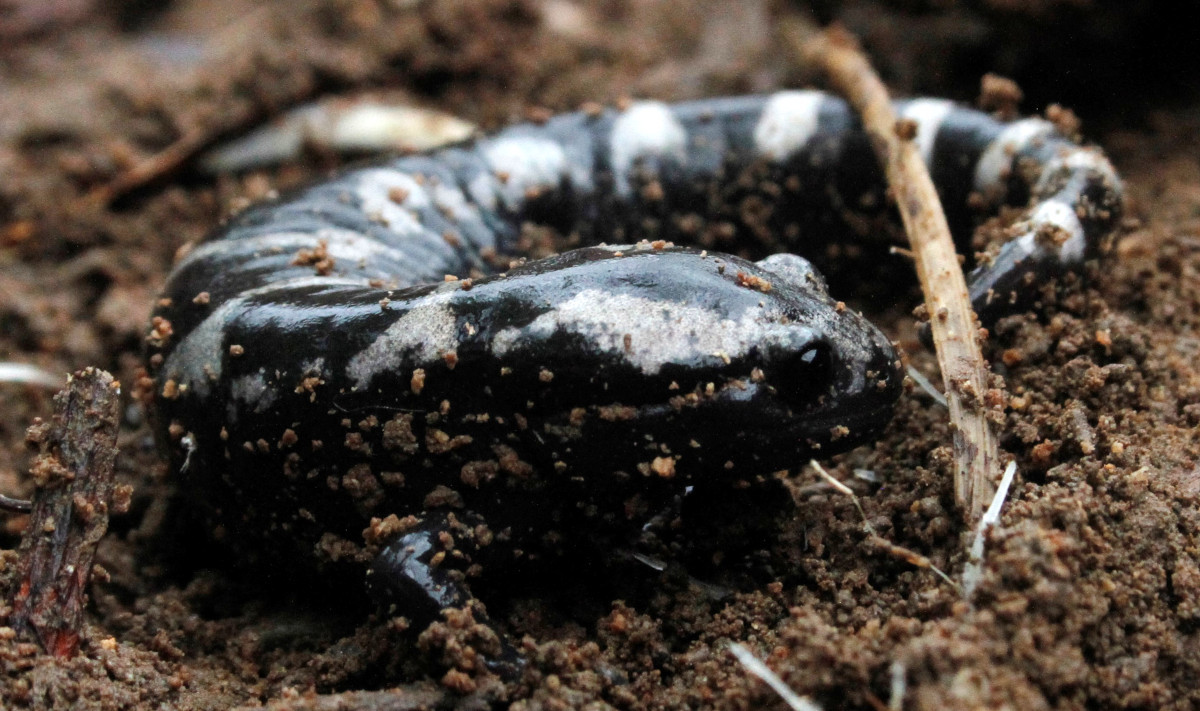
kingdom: Animalia
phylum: Chordata
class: Amphibia
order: Caudata
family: Ambystomatidae
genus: Ambystoma
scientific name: Ambystoma opacum
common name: Marbled salamander
